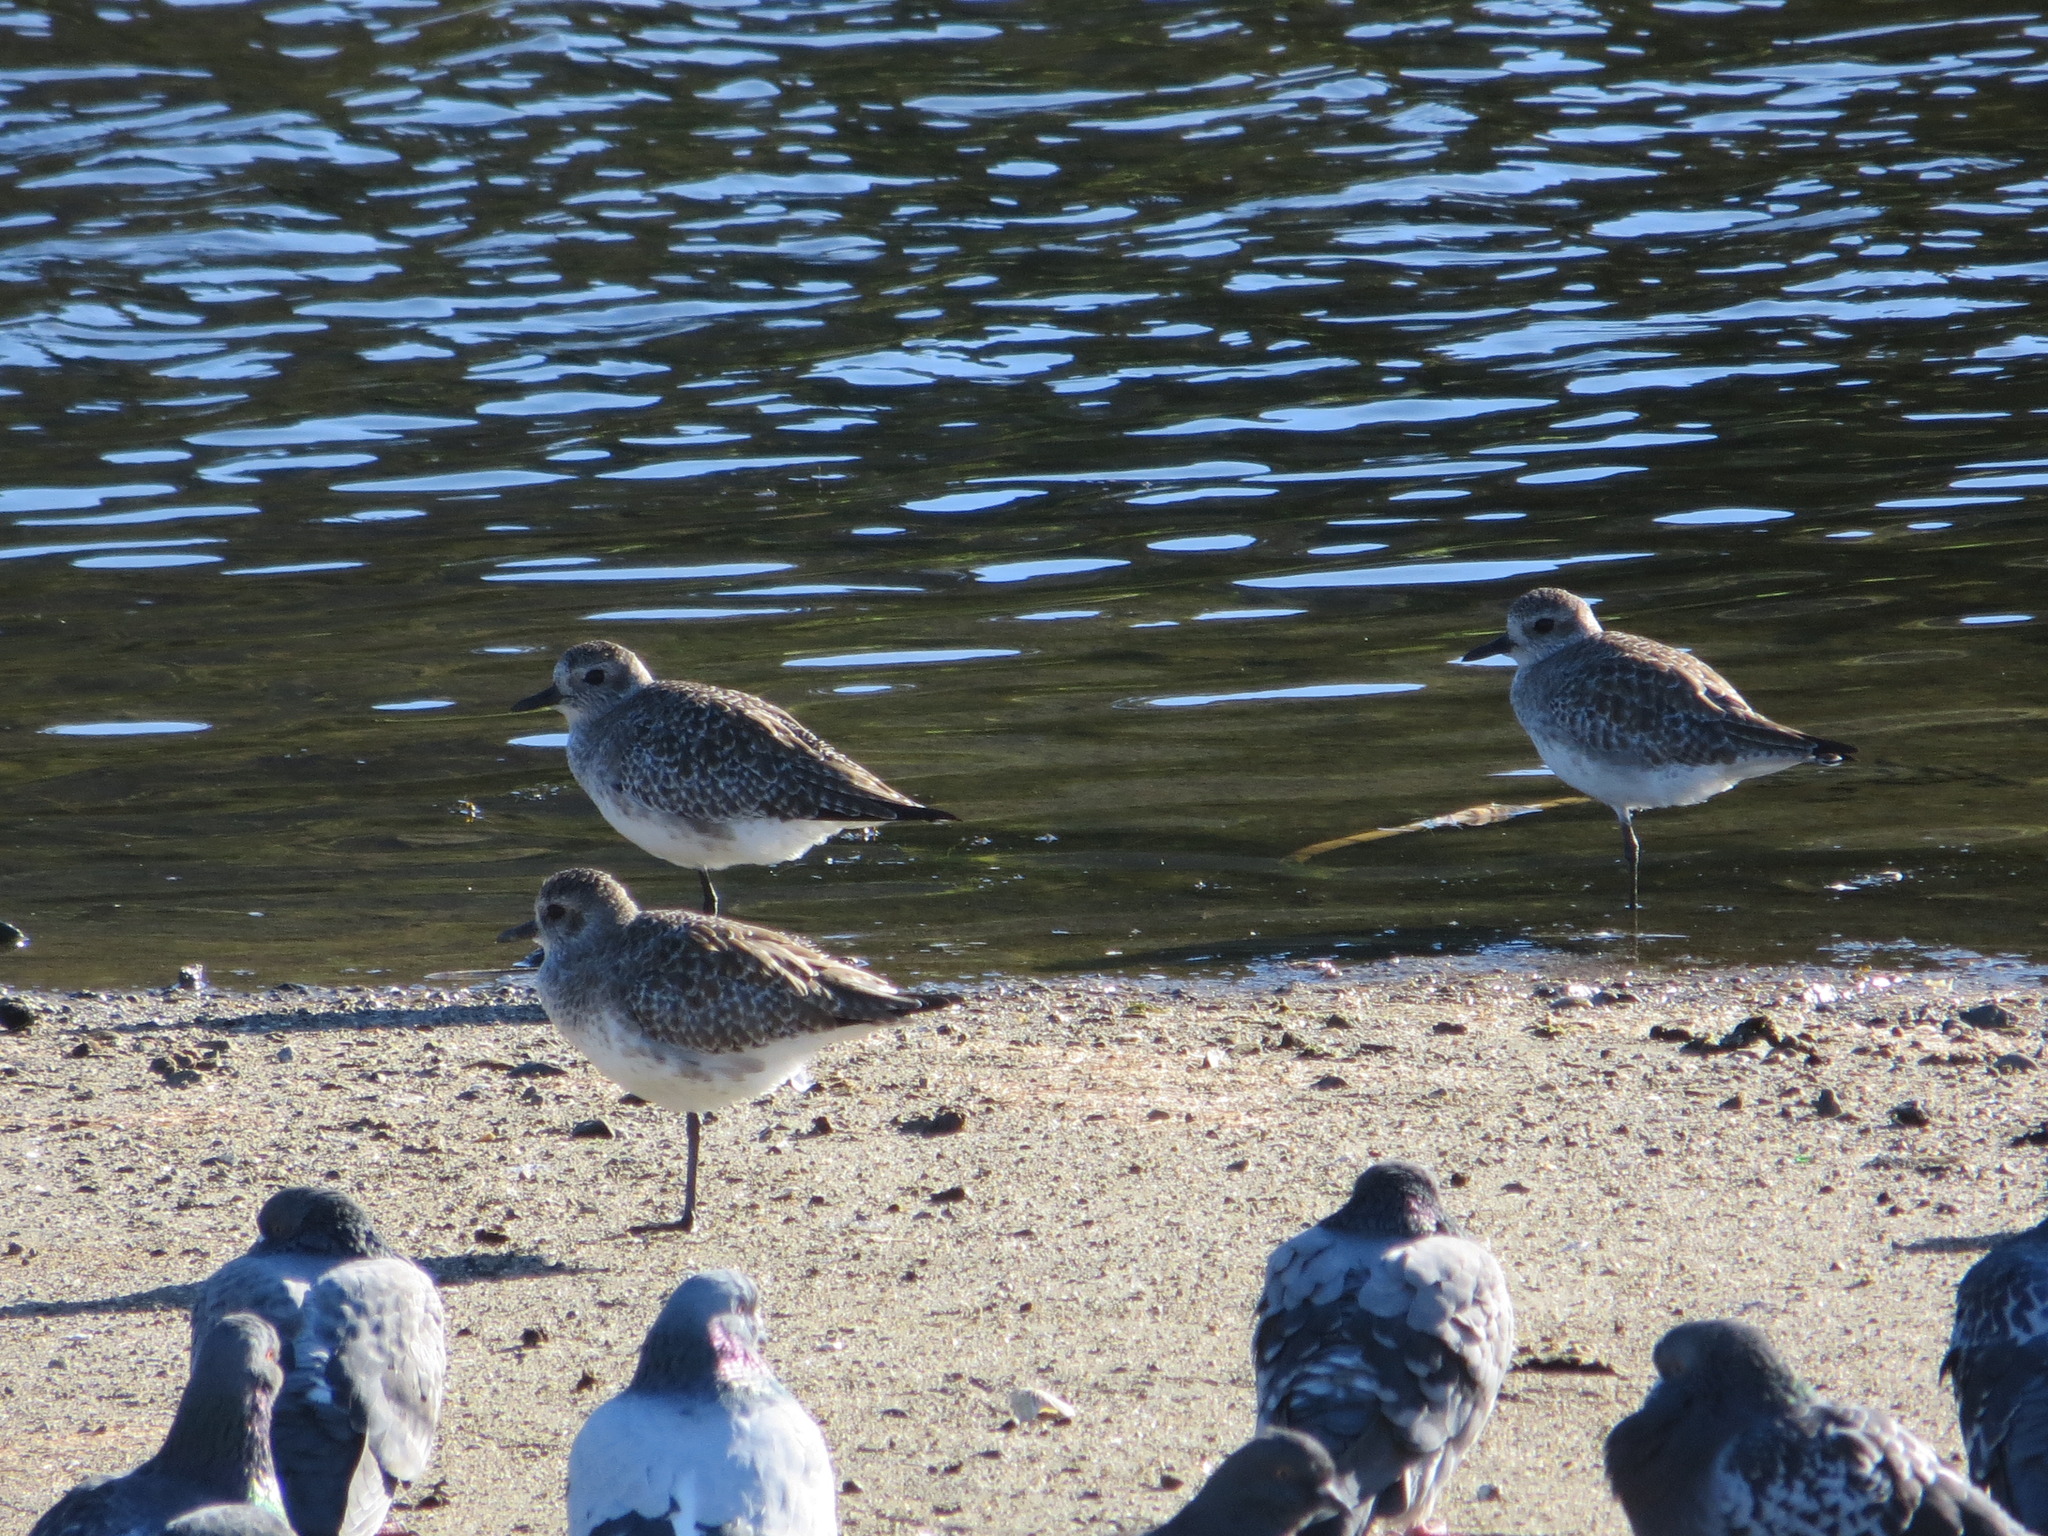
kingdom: Animalia
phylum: Chordata
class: Aves
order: Columbiformes
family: Columbidae
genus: Columba
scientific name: Columba livia
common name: Rock pigeon
